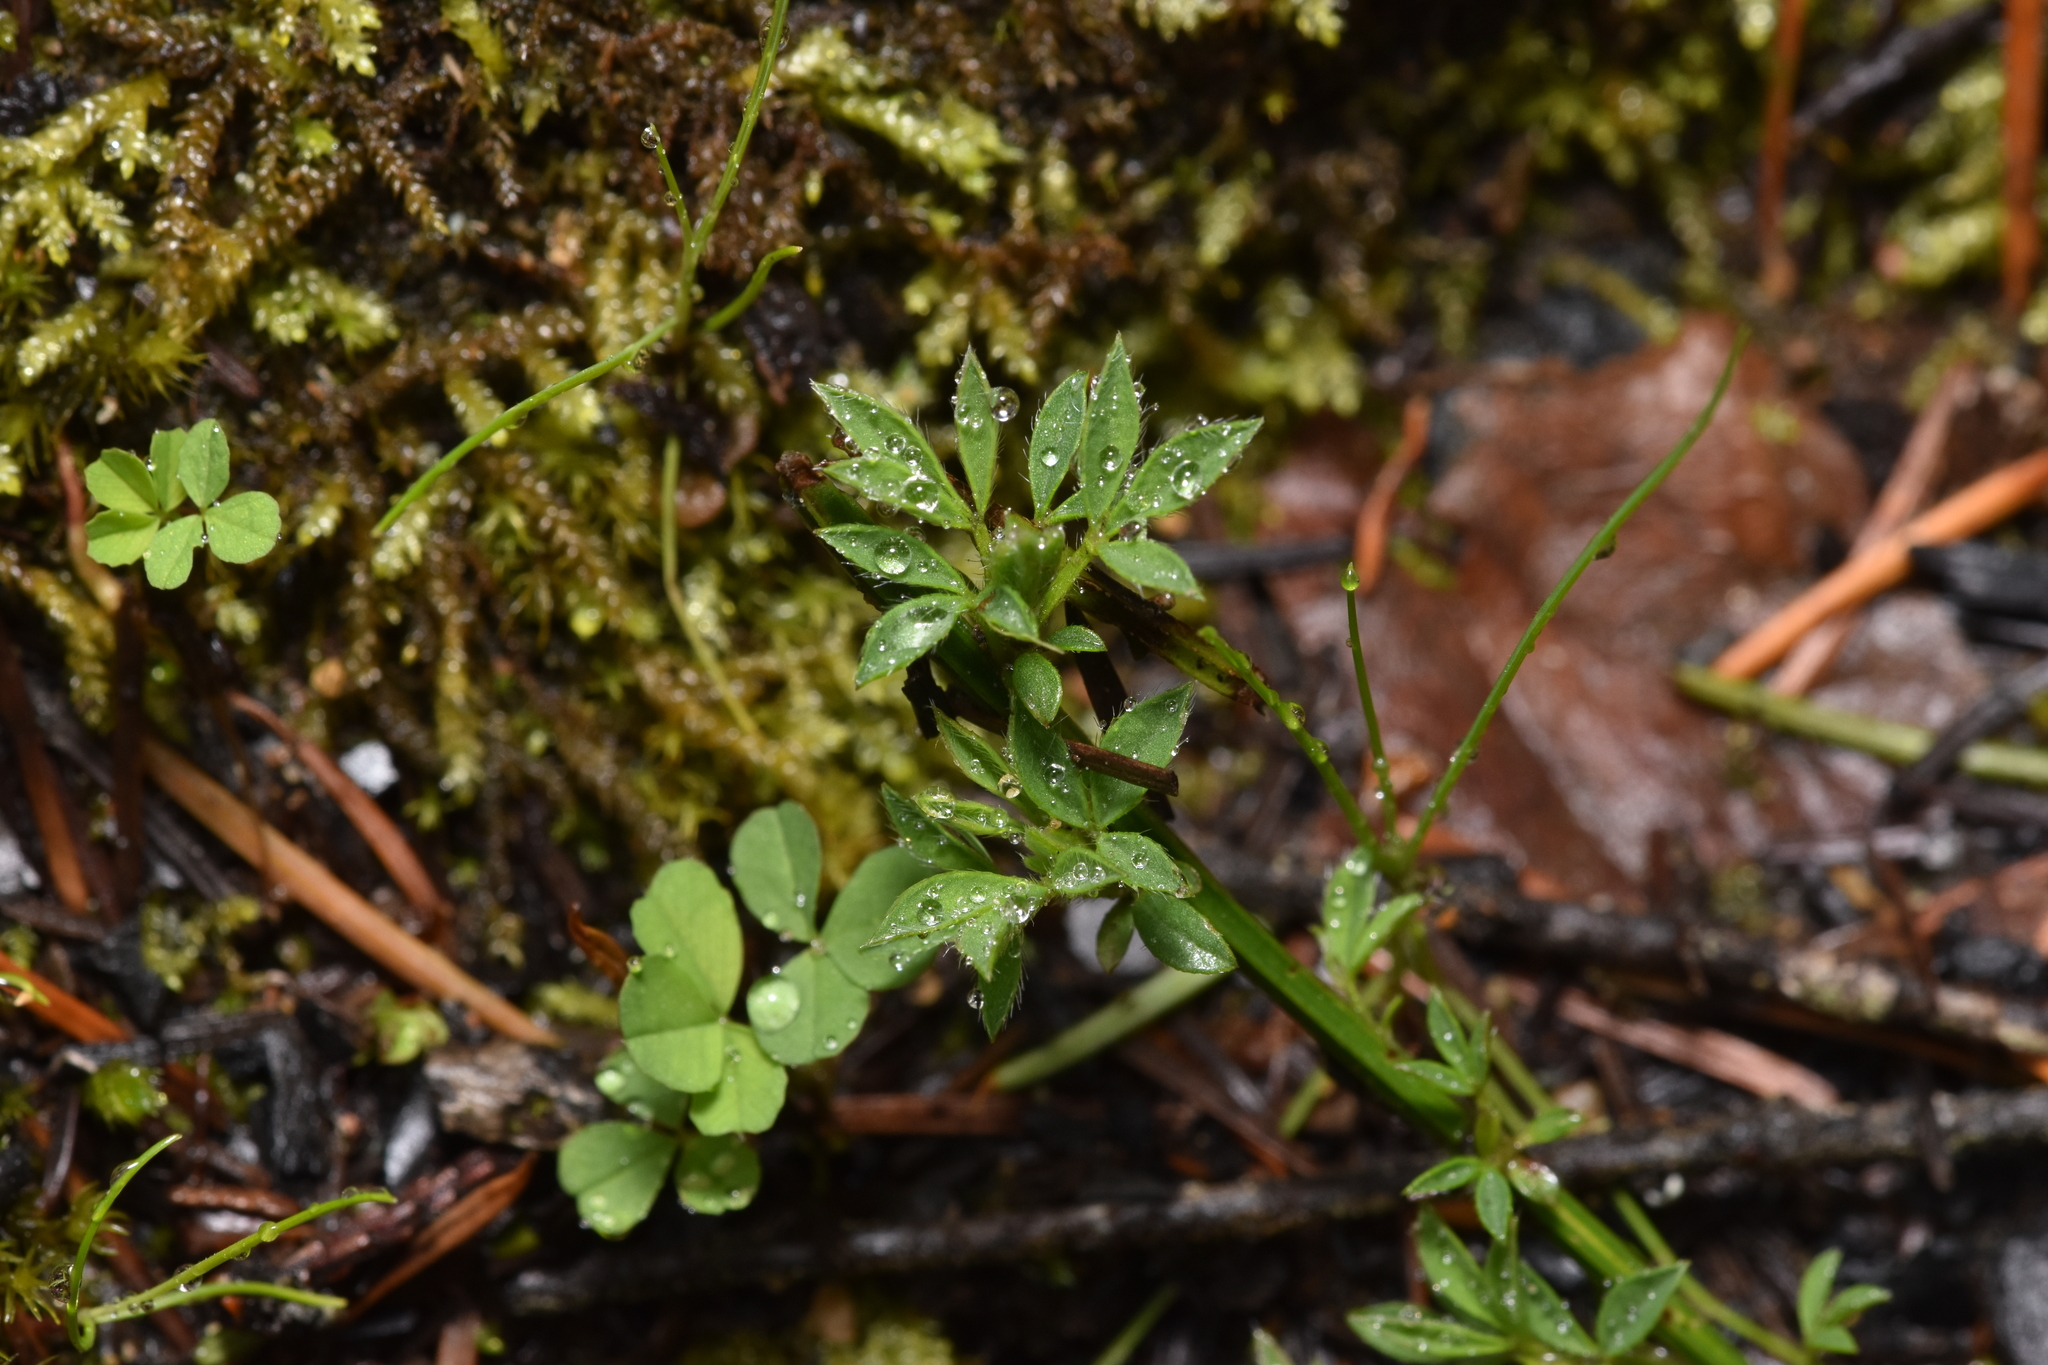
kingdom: Plantae
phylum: Tracheophyta
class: Magnoliopsida
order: Fabales
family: Fabaceae
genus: Cytisus
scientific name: Cytisus scoparius
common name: Scotch broom
